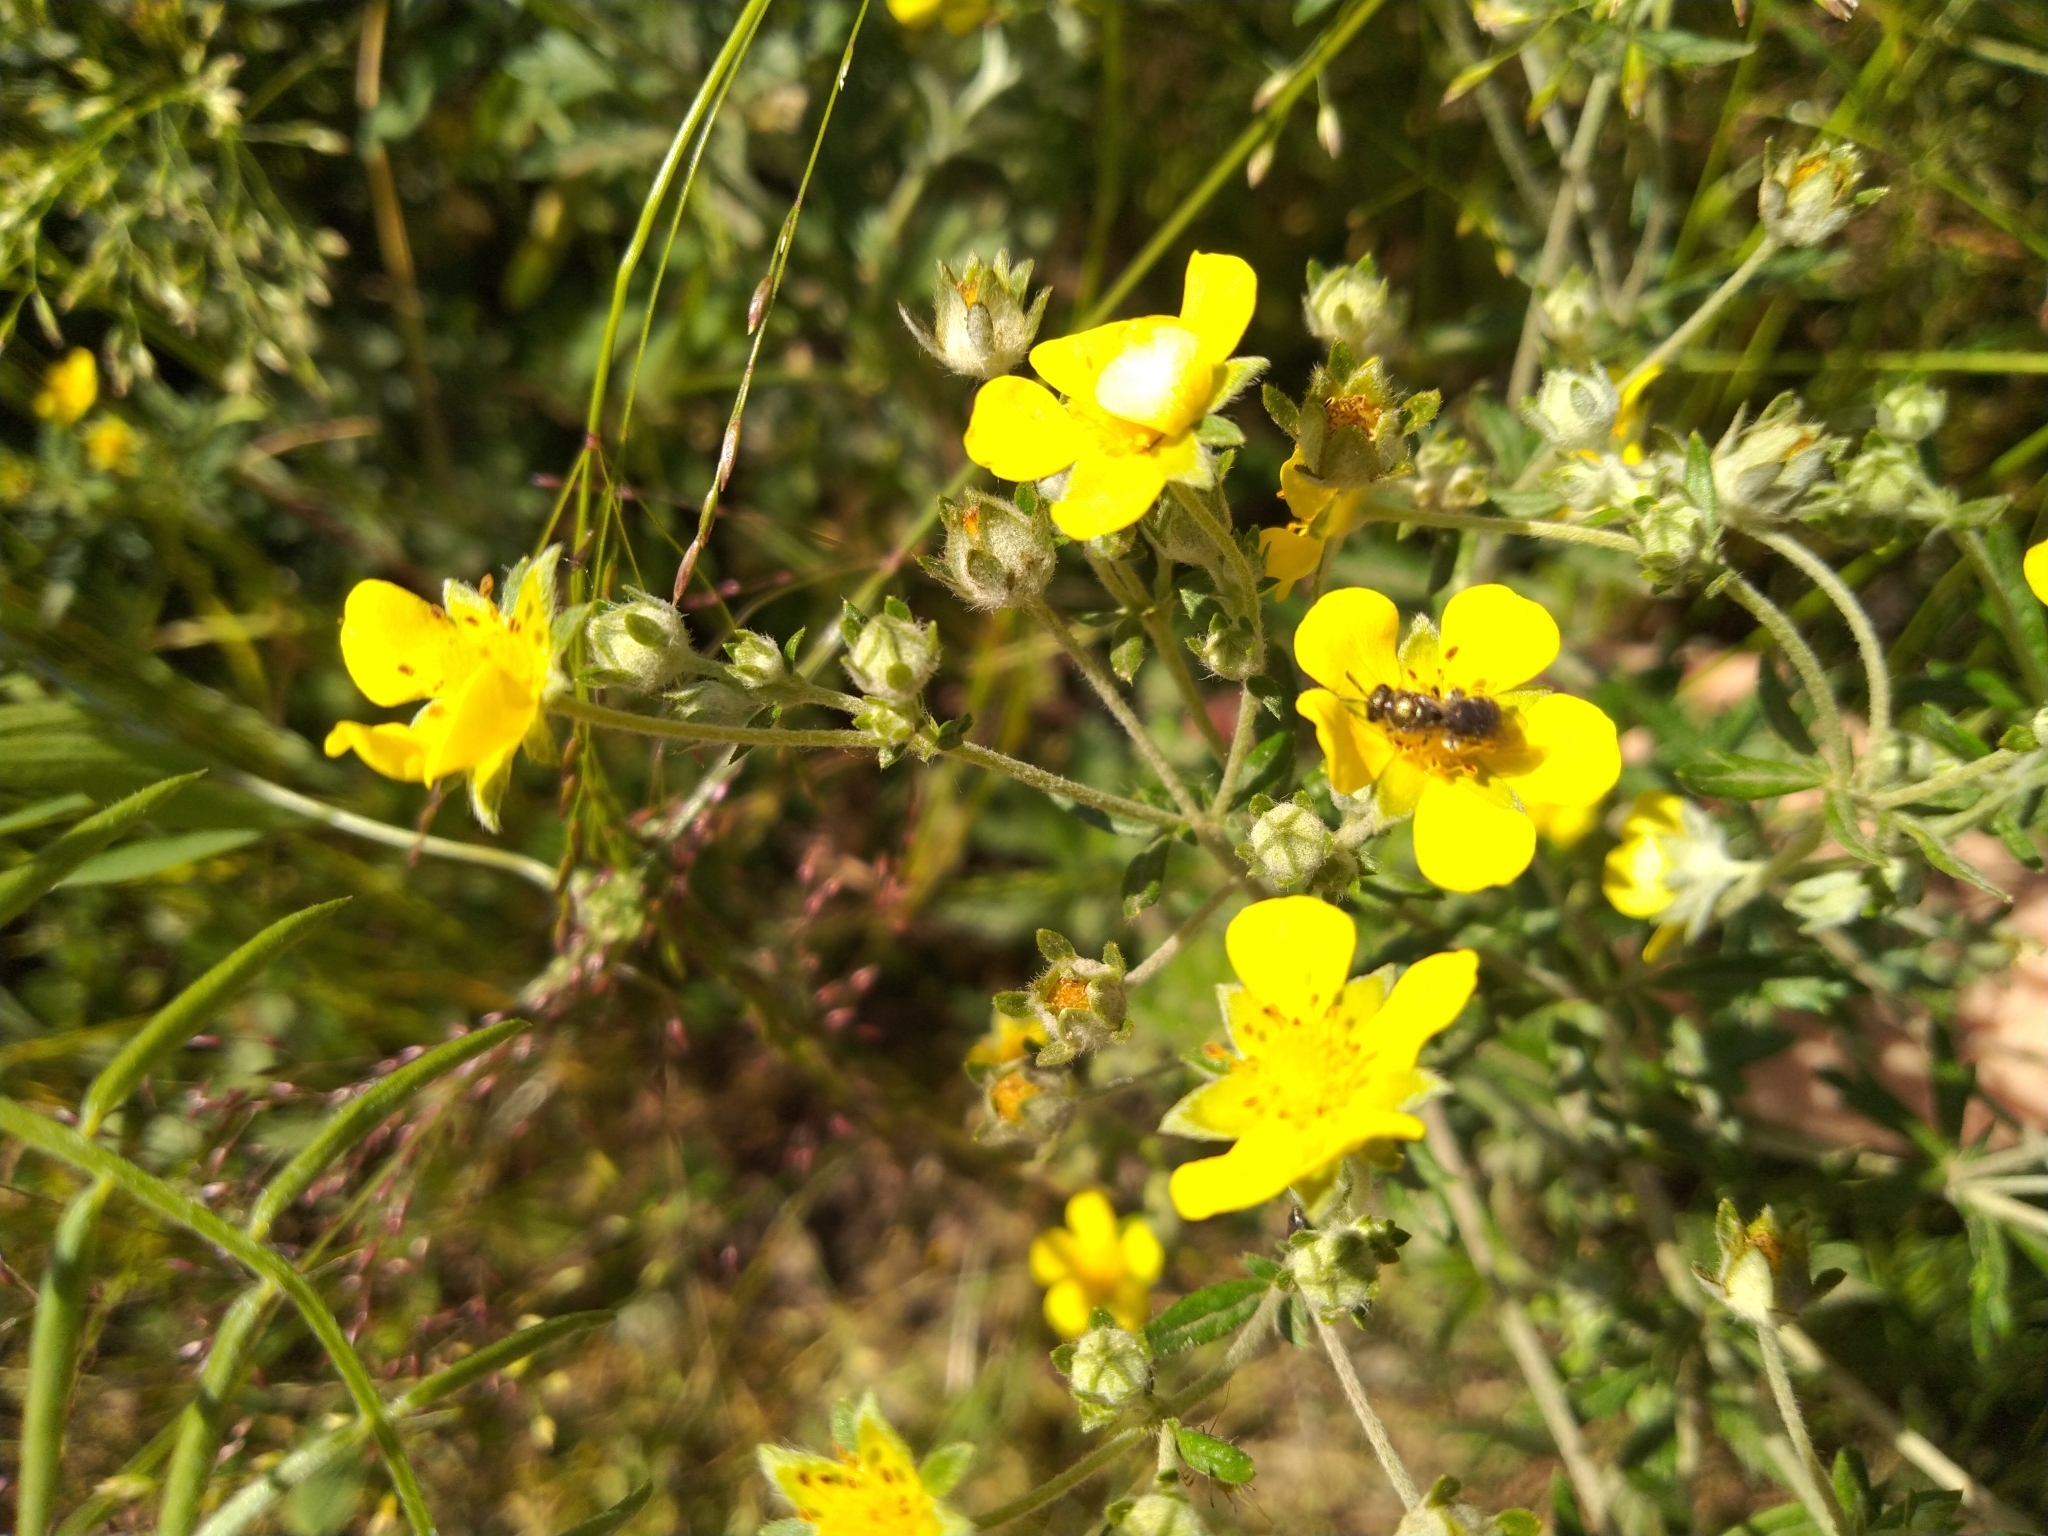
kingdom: Plantae
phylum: Tracheophyta
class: Magnoliopsida
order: Rosales
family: Rosaceae
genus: Potentilla
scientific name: Potentilla argentea
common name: Hoary cinquefoil
